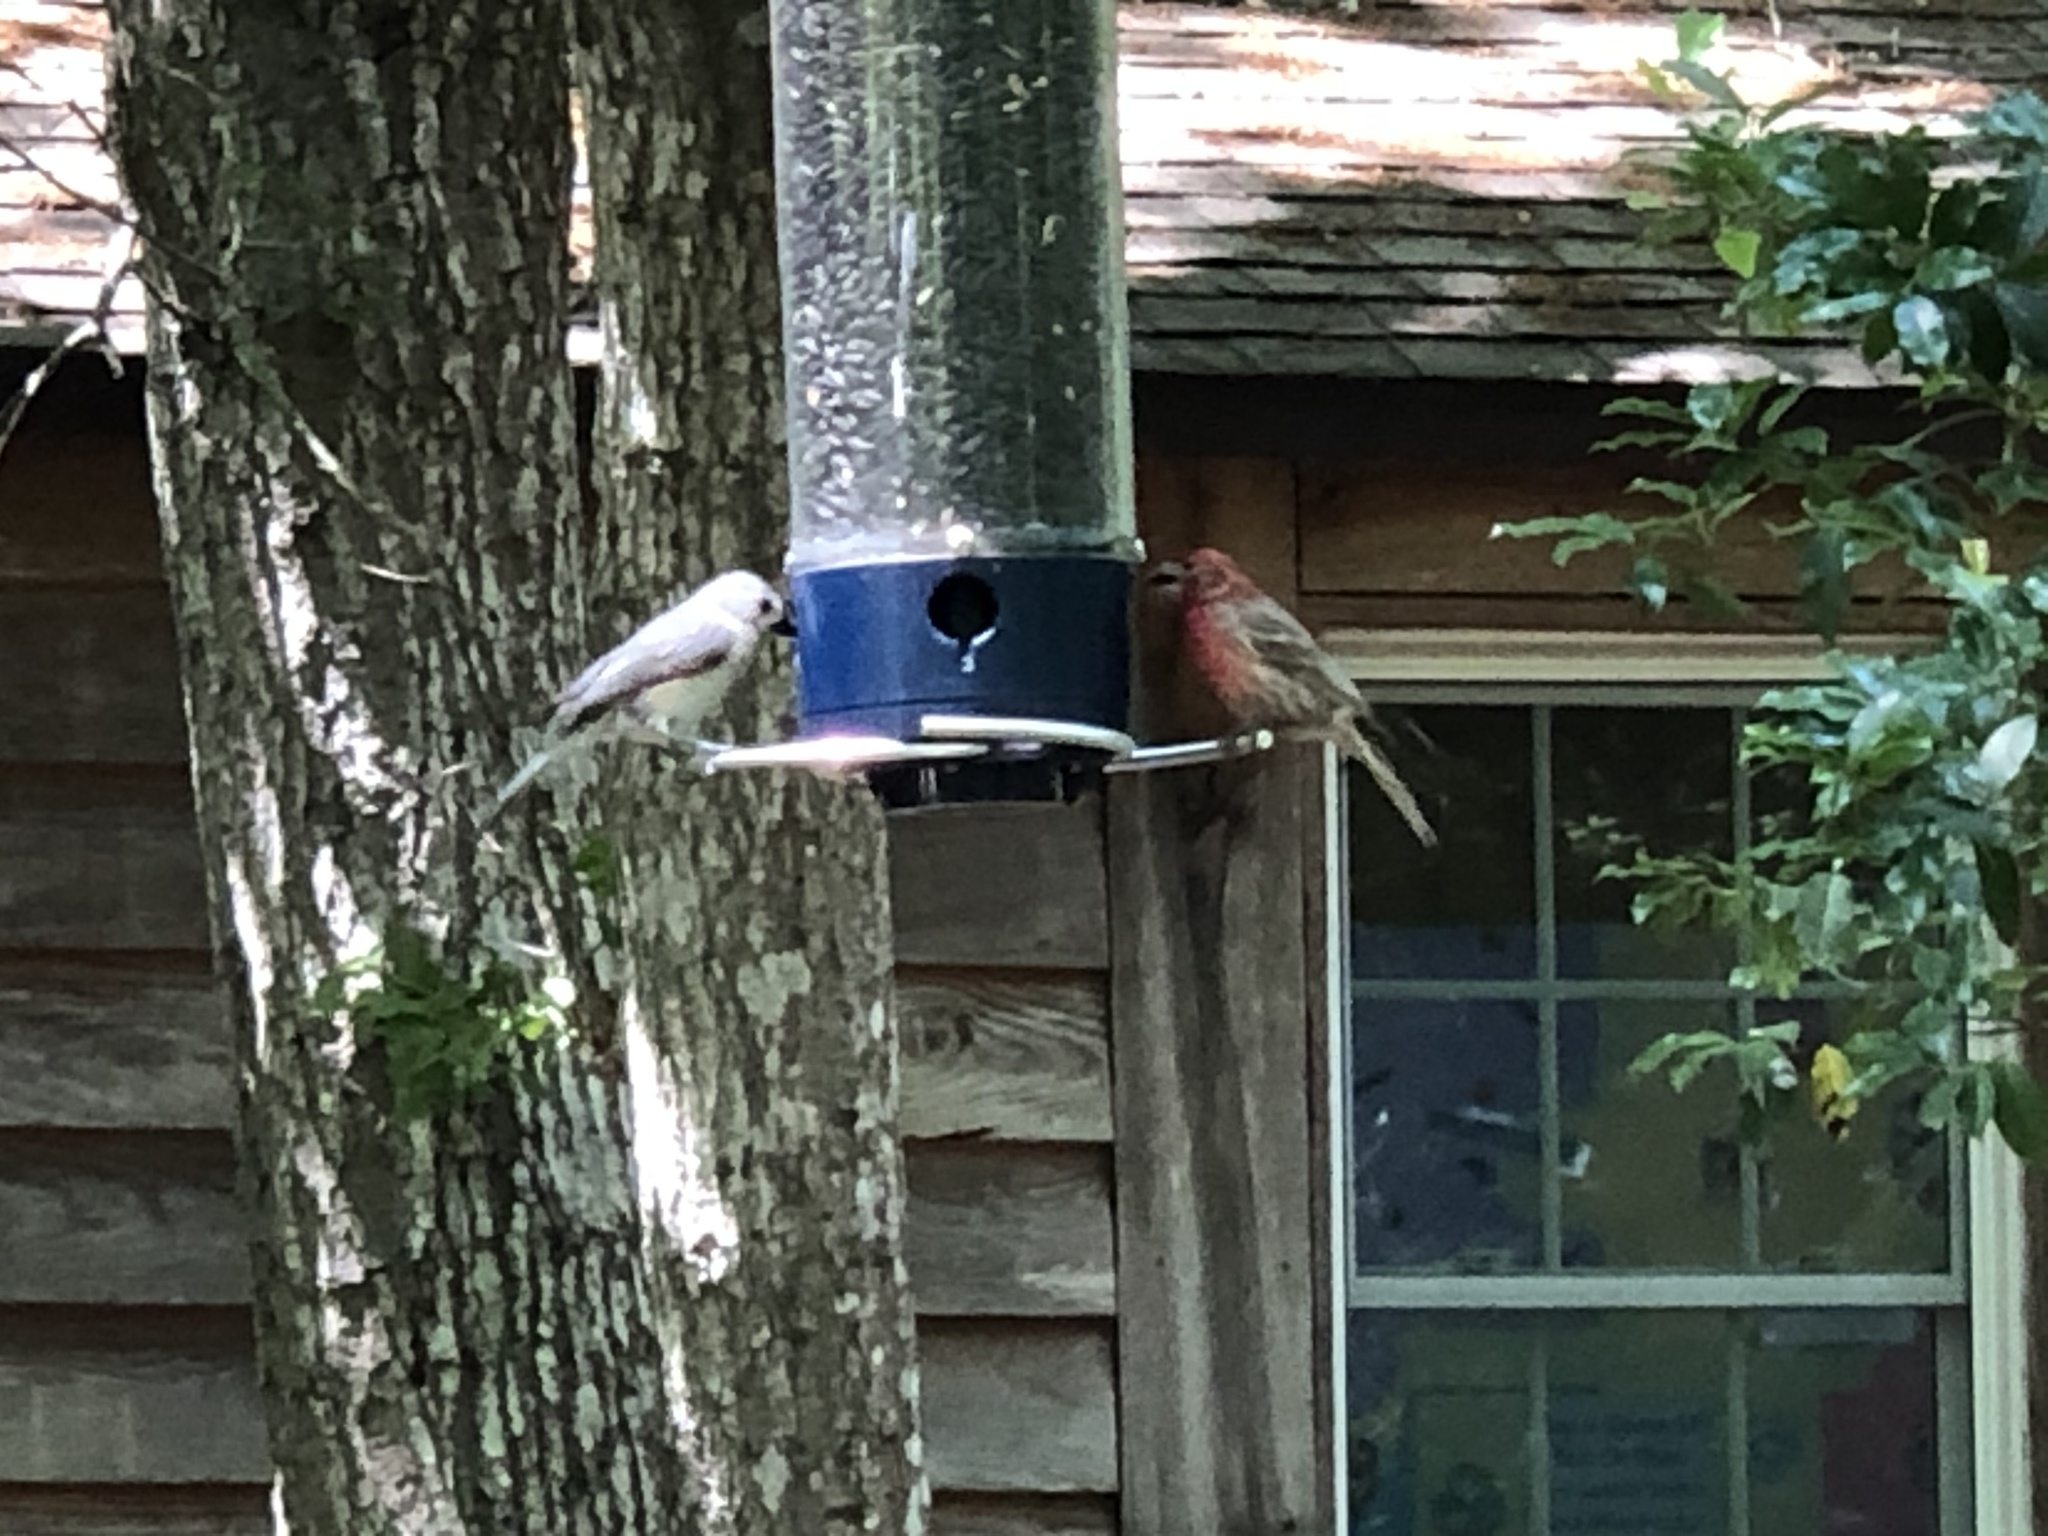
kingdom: Animalia
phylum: Chordata
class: Aves
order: Passeriformes
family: Fringillidae
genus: Haemorhous
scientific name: Haemorhous mexicanus
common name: House finch
